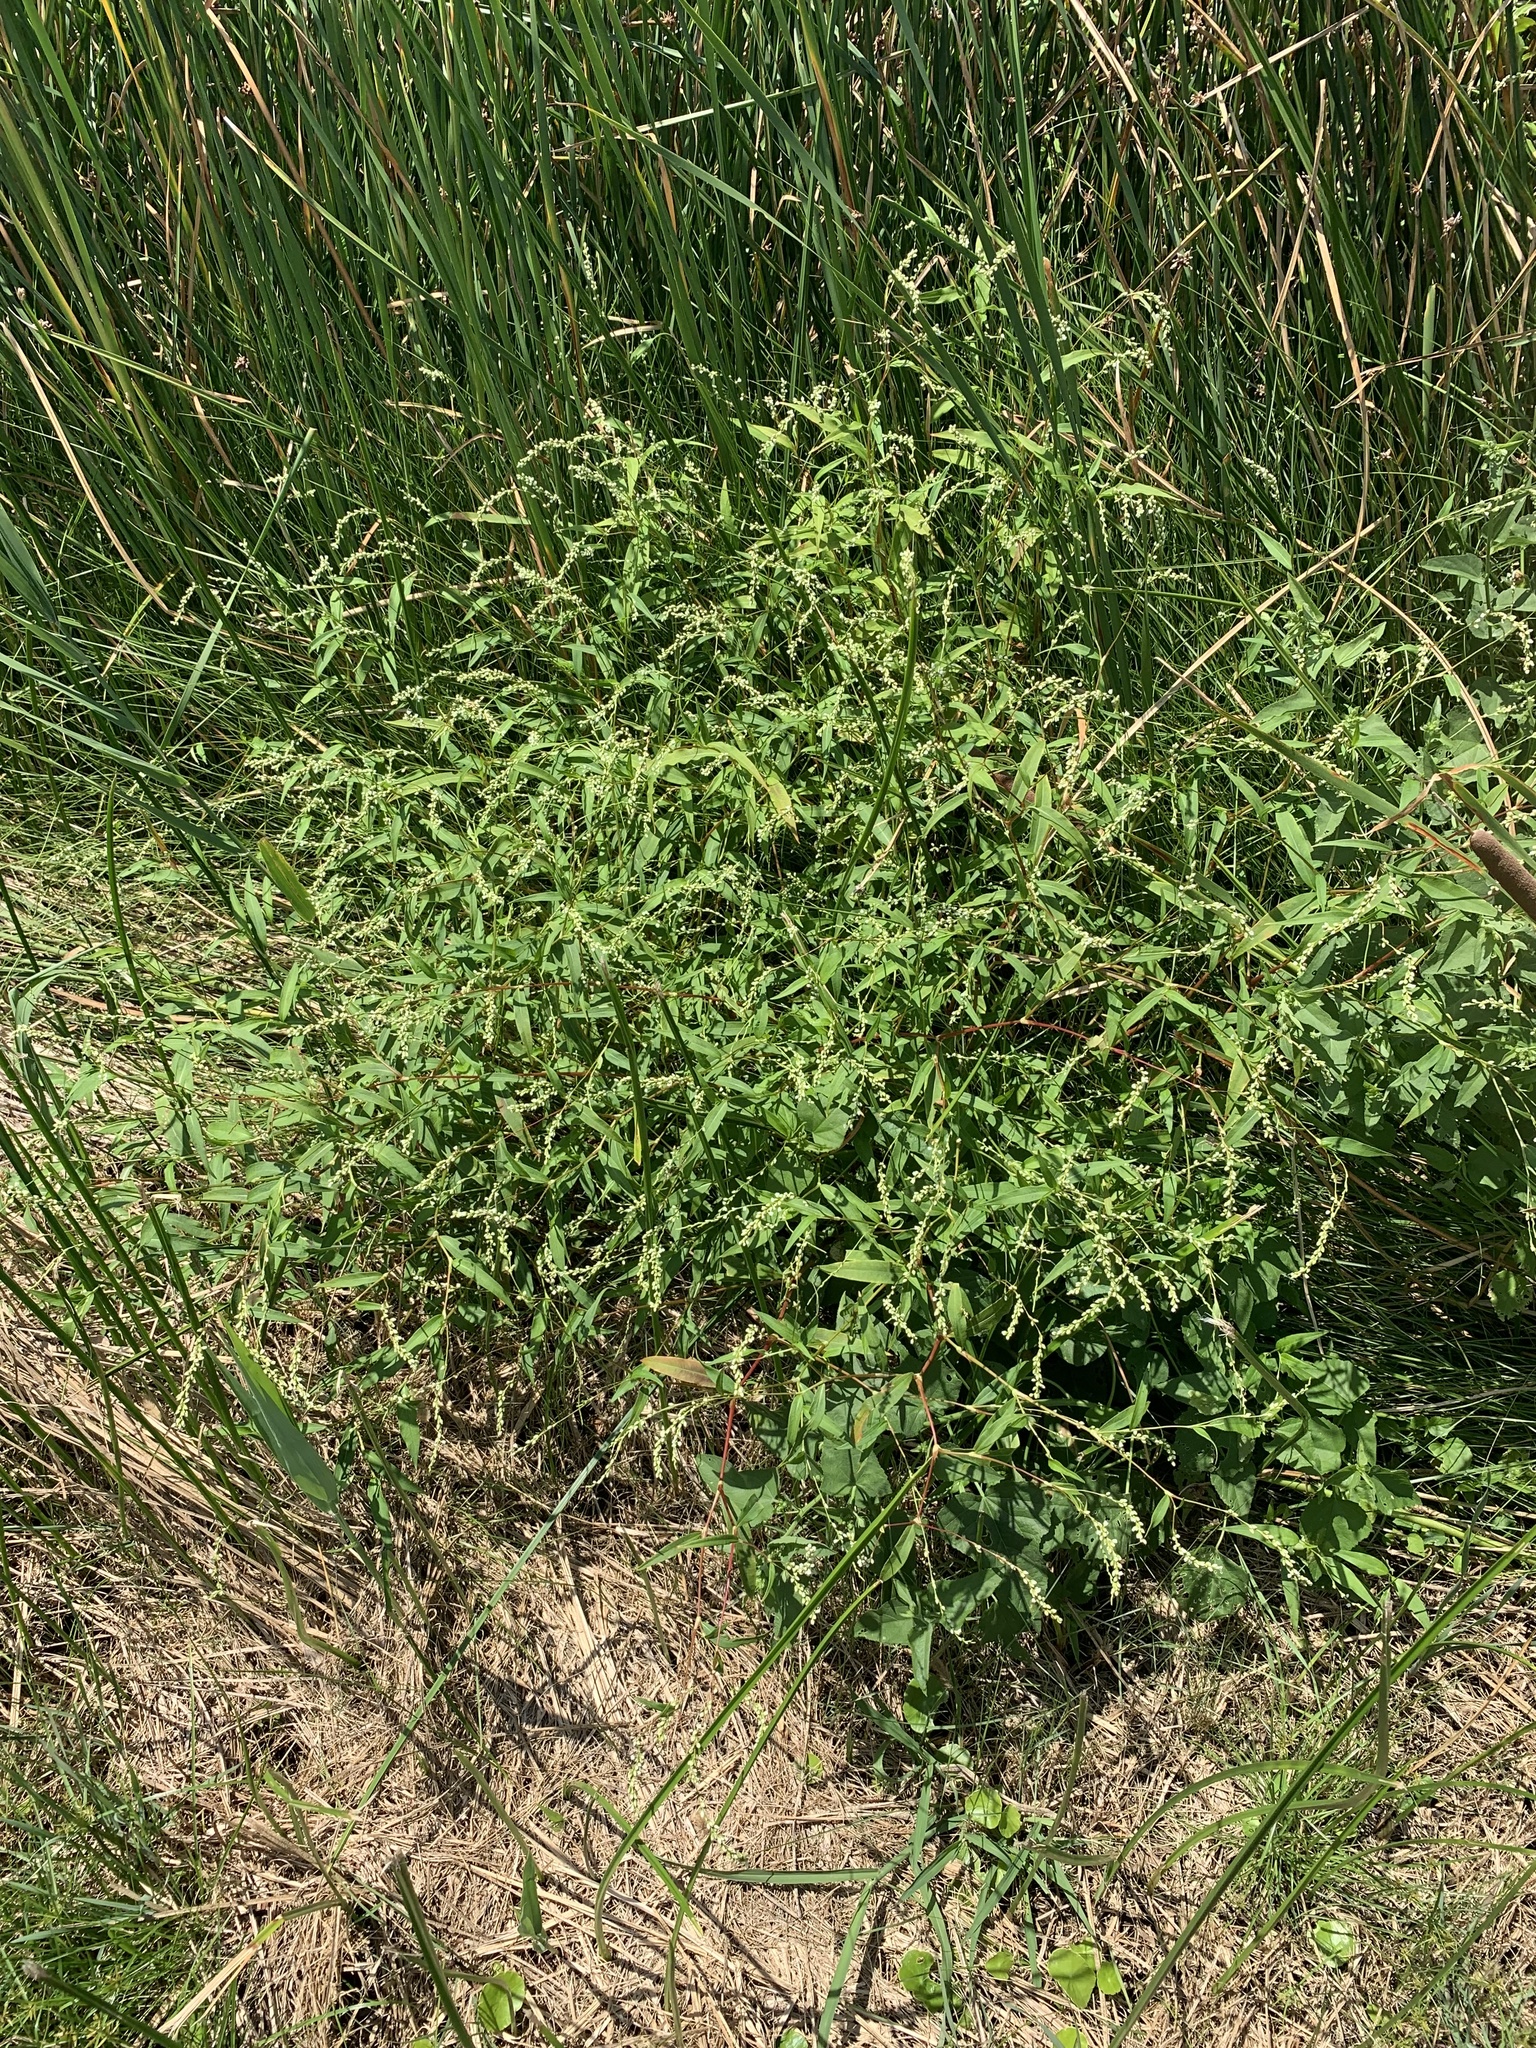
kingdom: Plantae
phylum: Tracheophyta
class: Magnoliopsida
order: Caryophyllales
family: Polygonaceae
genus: Persicaria
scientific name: Persicaria punctata
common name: Dotted smartweed
